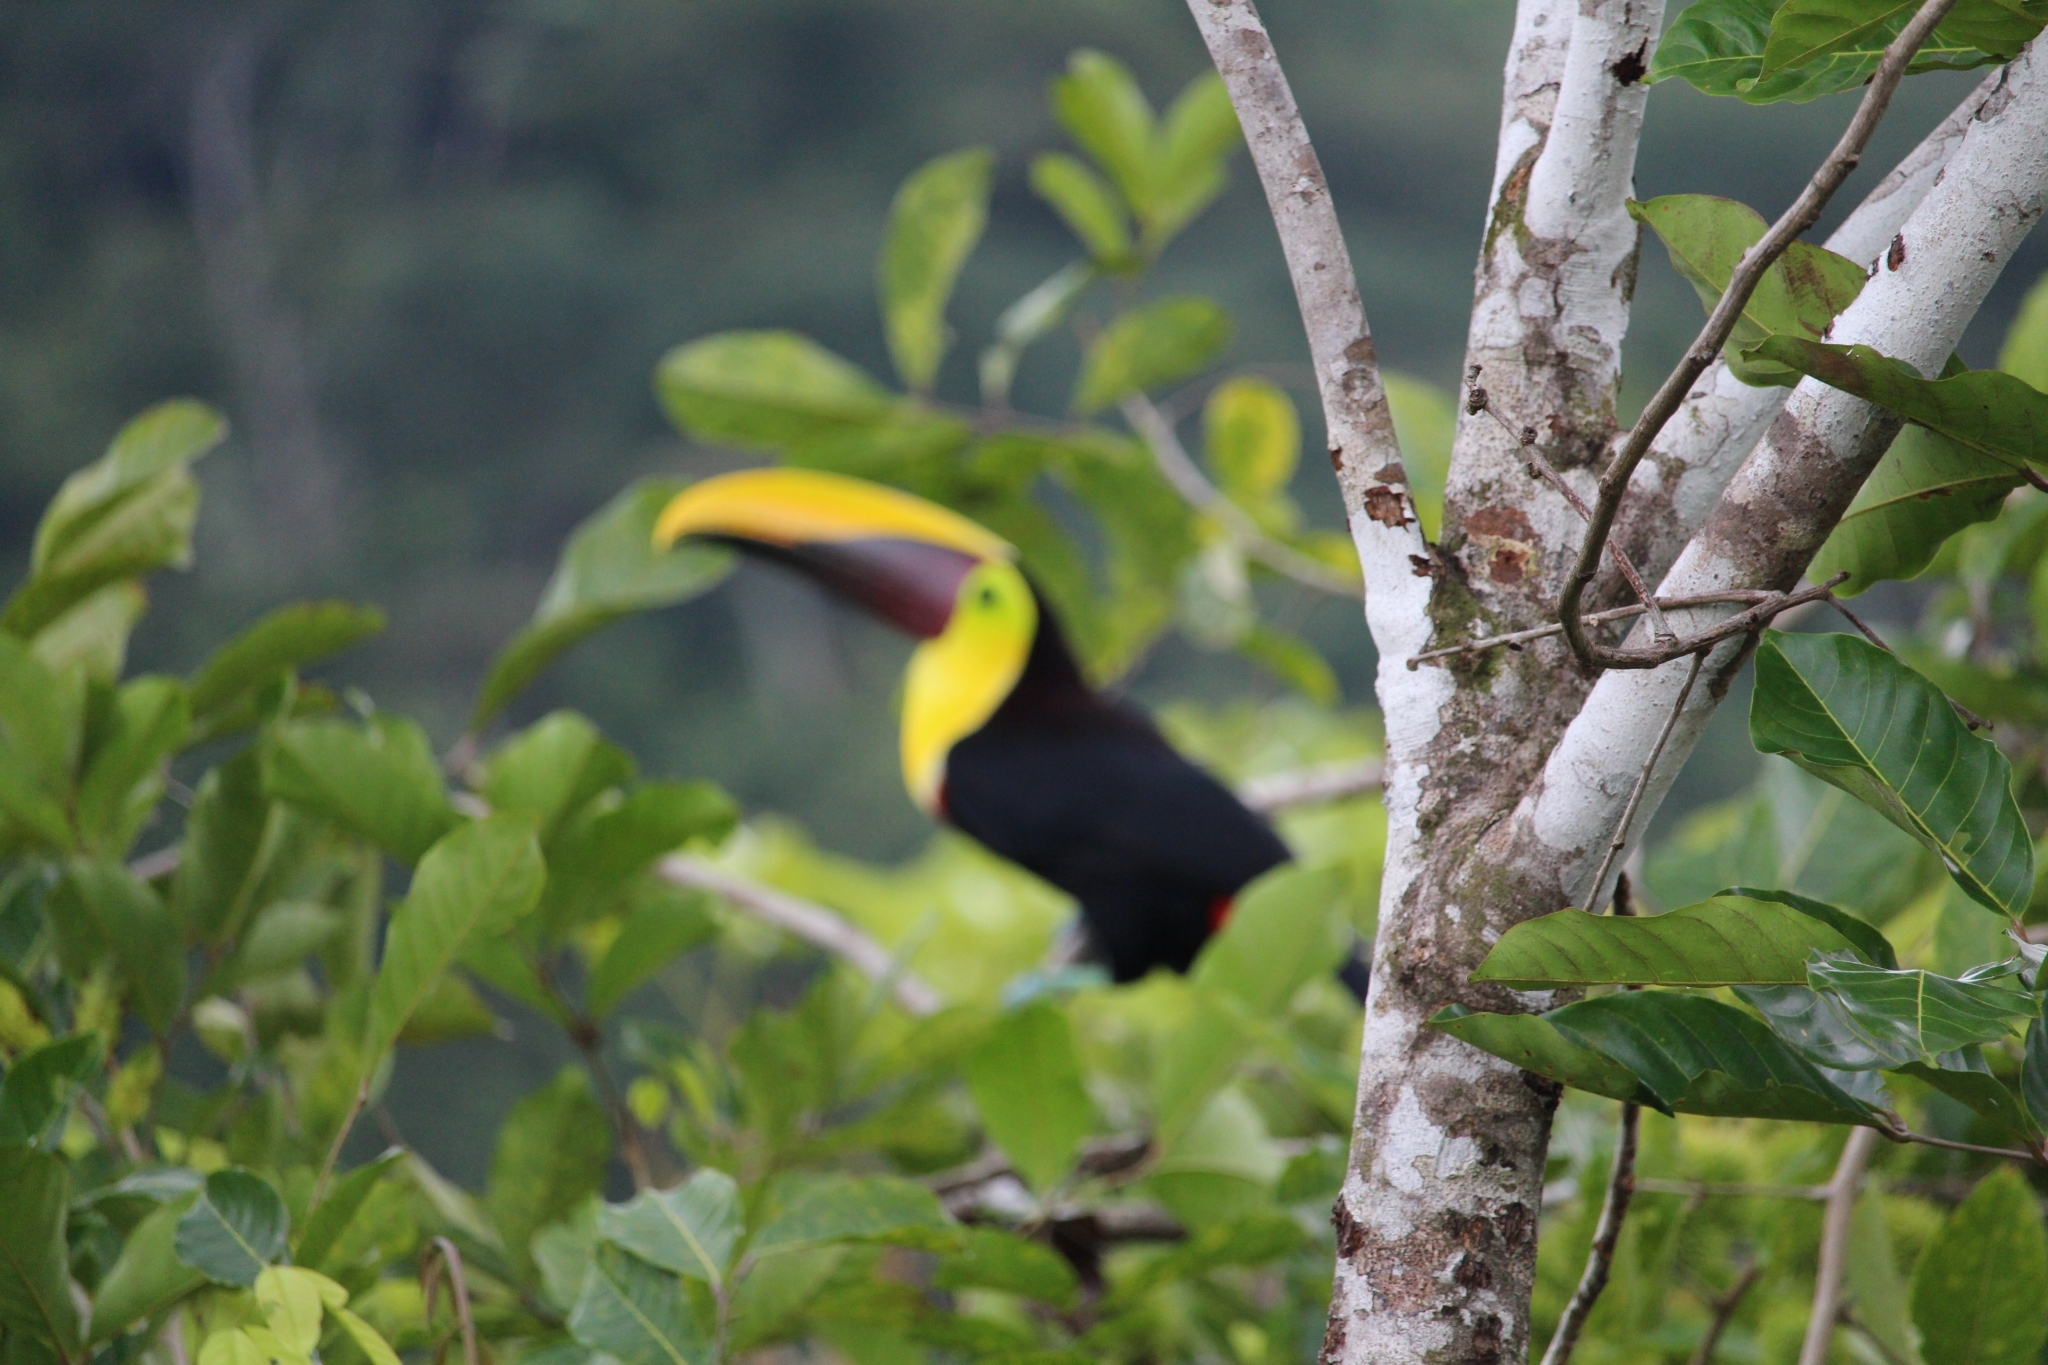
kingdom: Animalia
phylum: Chordata
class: Aves
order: Piciformes
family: Ramphastidae
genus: Ramphastos
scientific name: Ramphastos ambiguus
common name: Yellow-throated toucan
